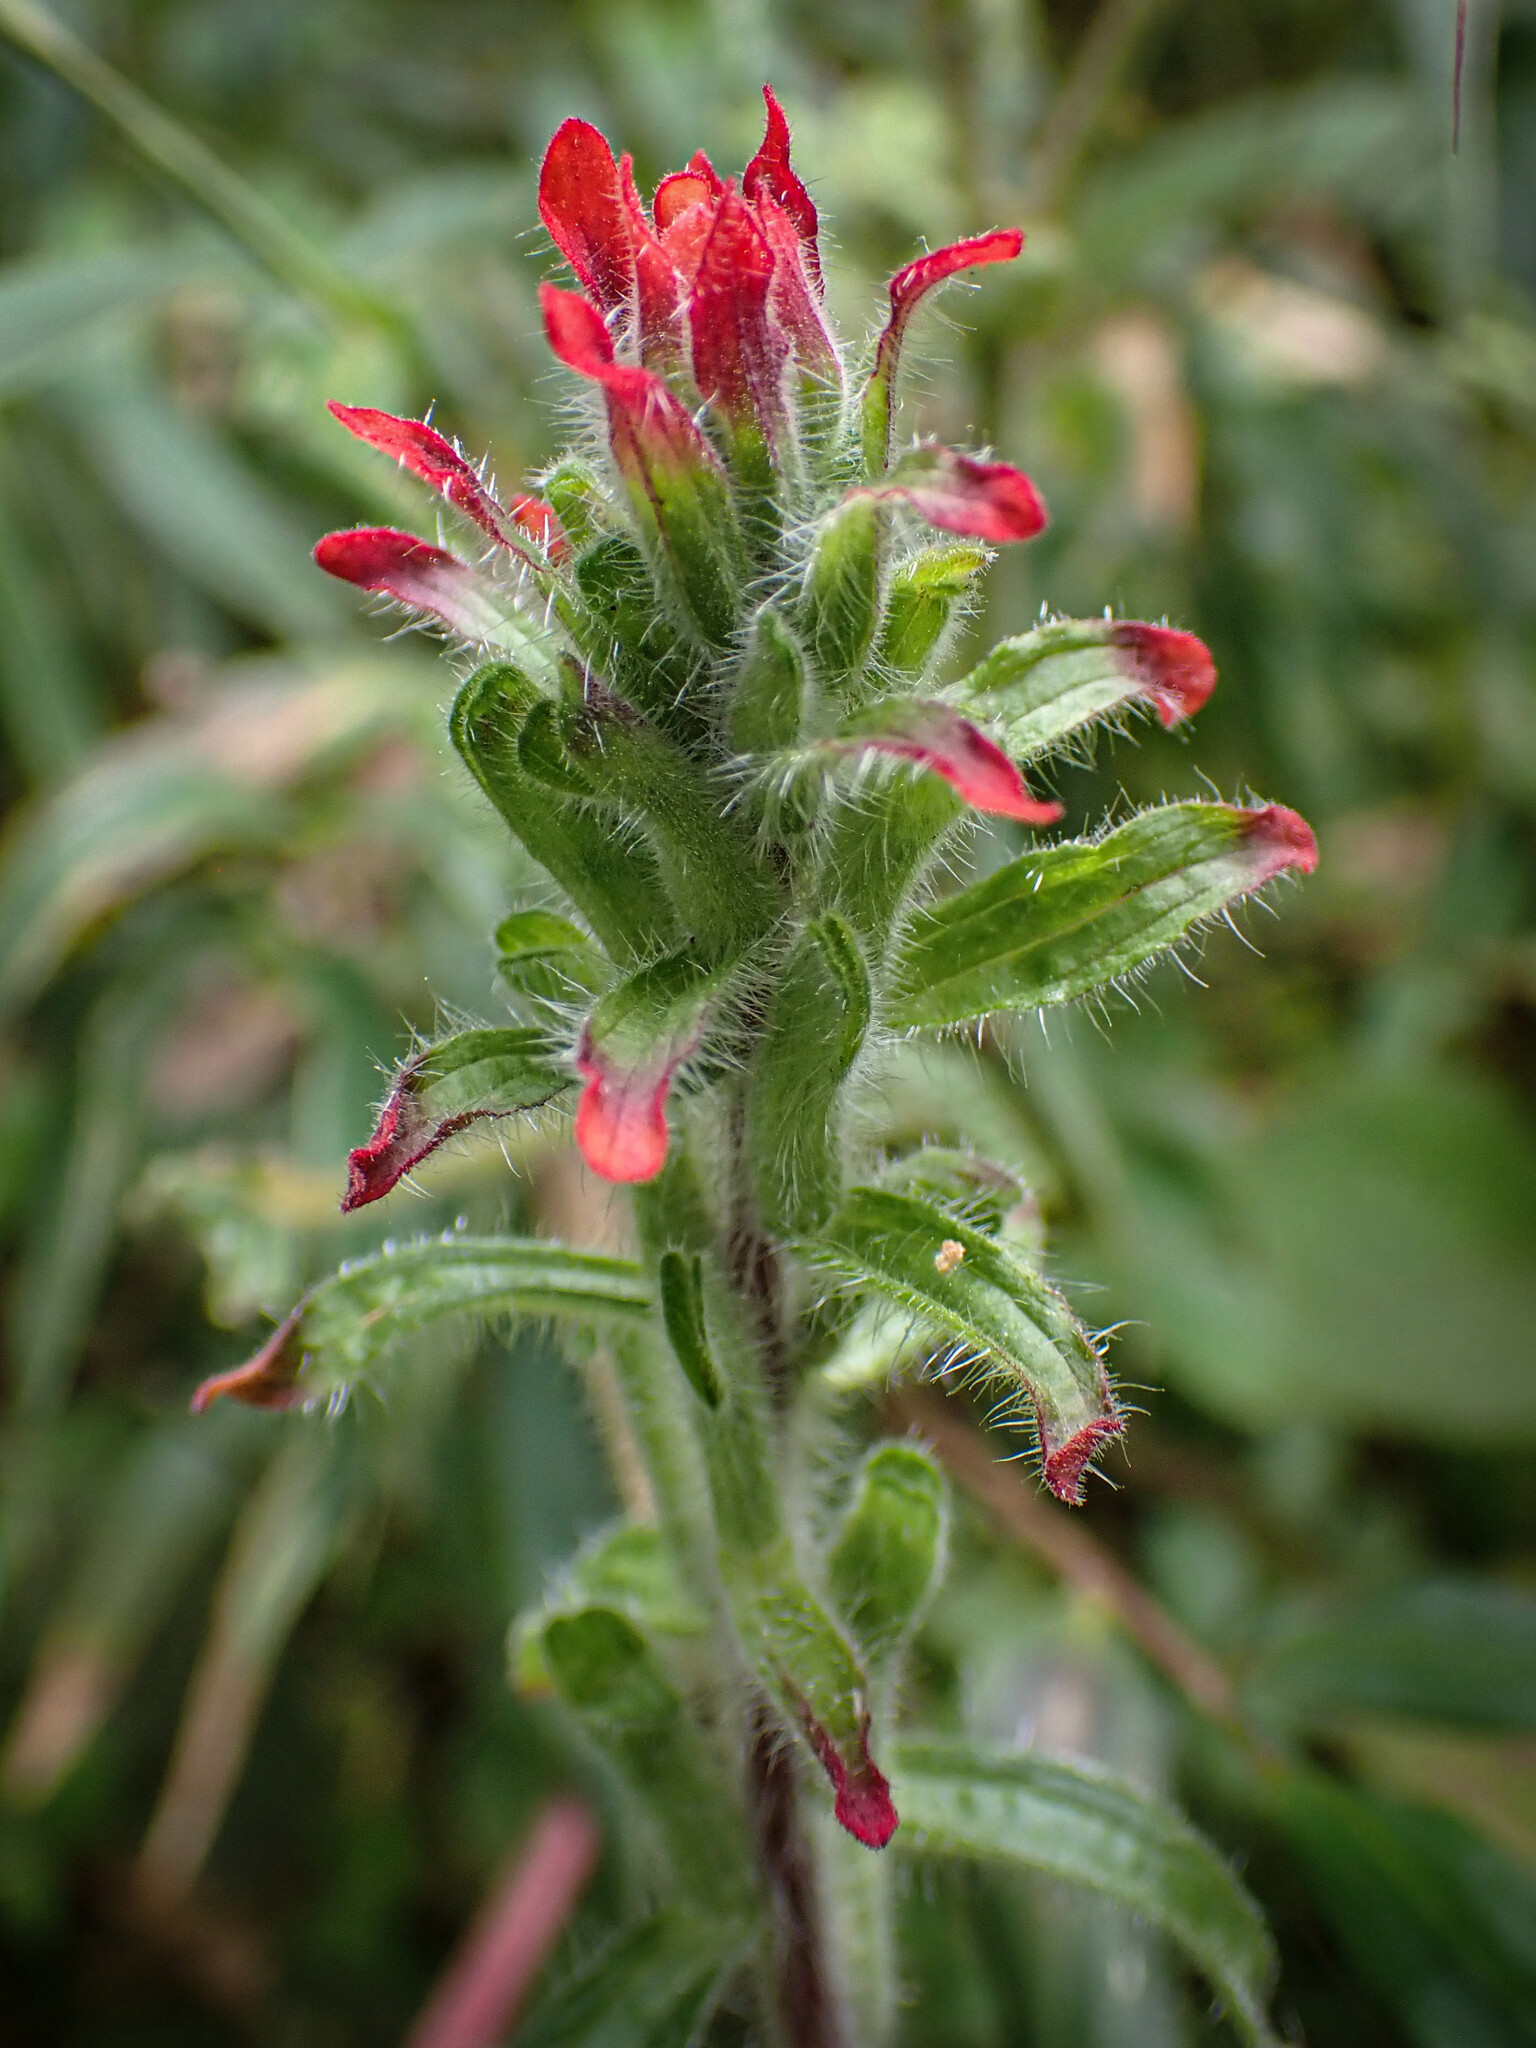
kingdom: Plantae
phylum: Tracheophyta
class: Magnoliopsida
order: Lamiales
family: Orobanchaceae
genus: Castilleja
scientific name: Castilleja arvensis
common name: Indian paintbrush
